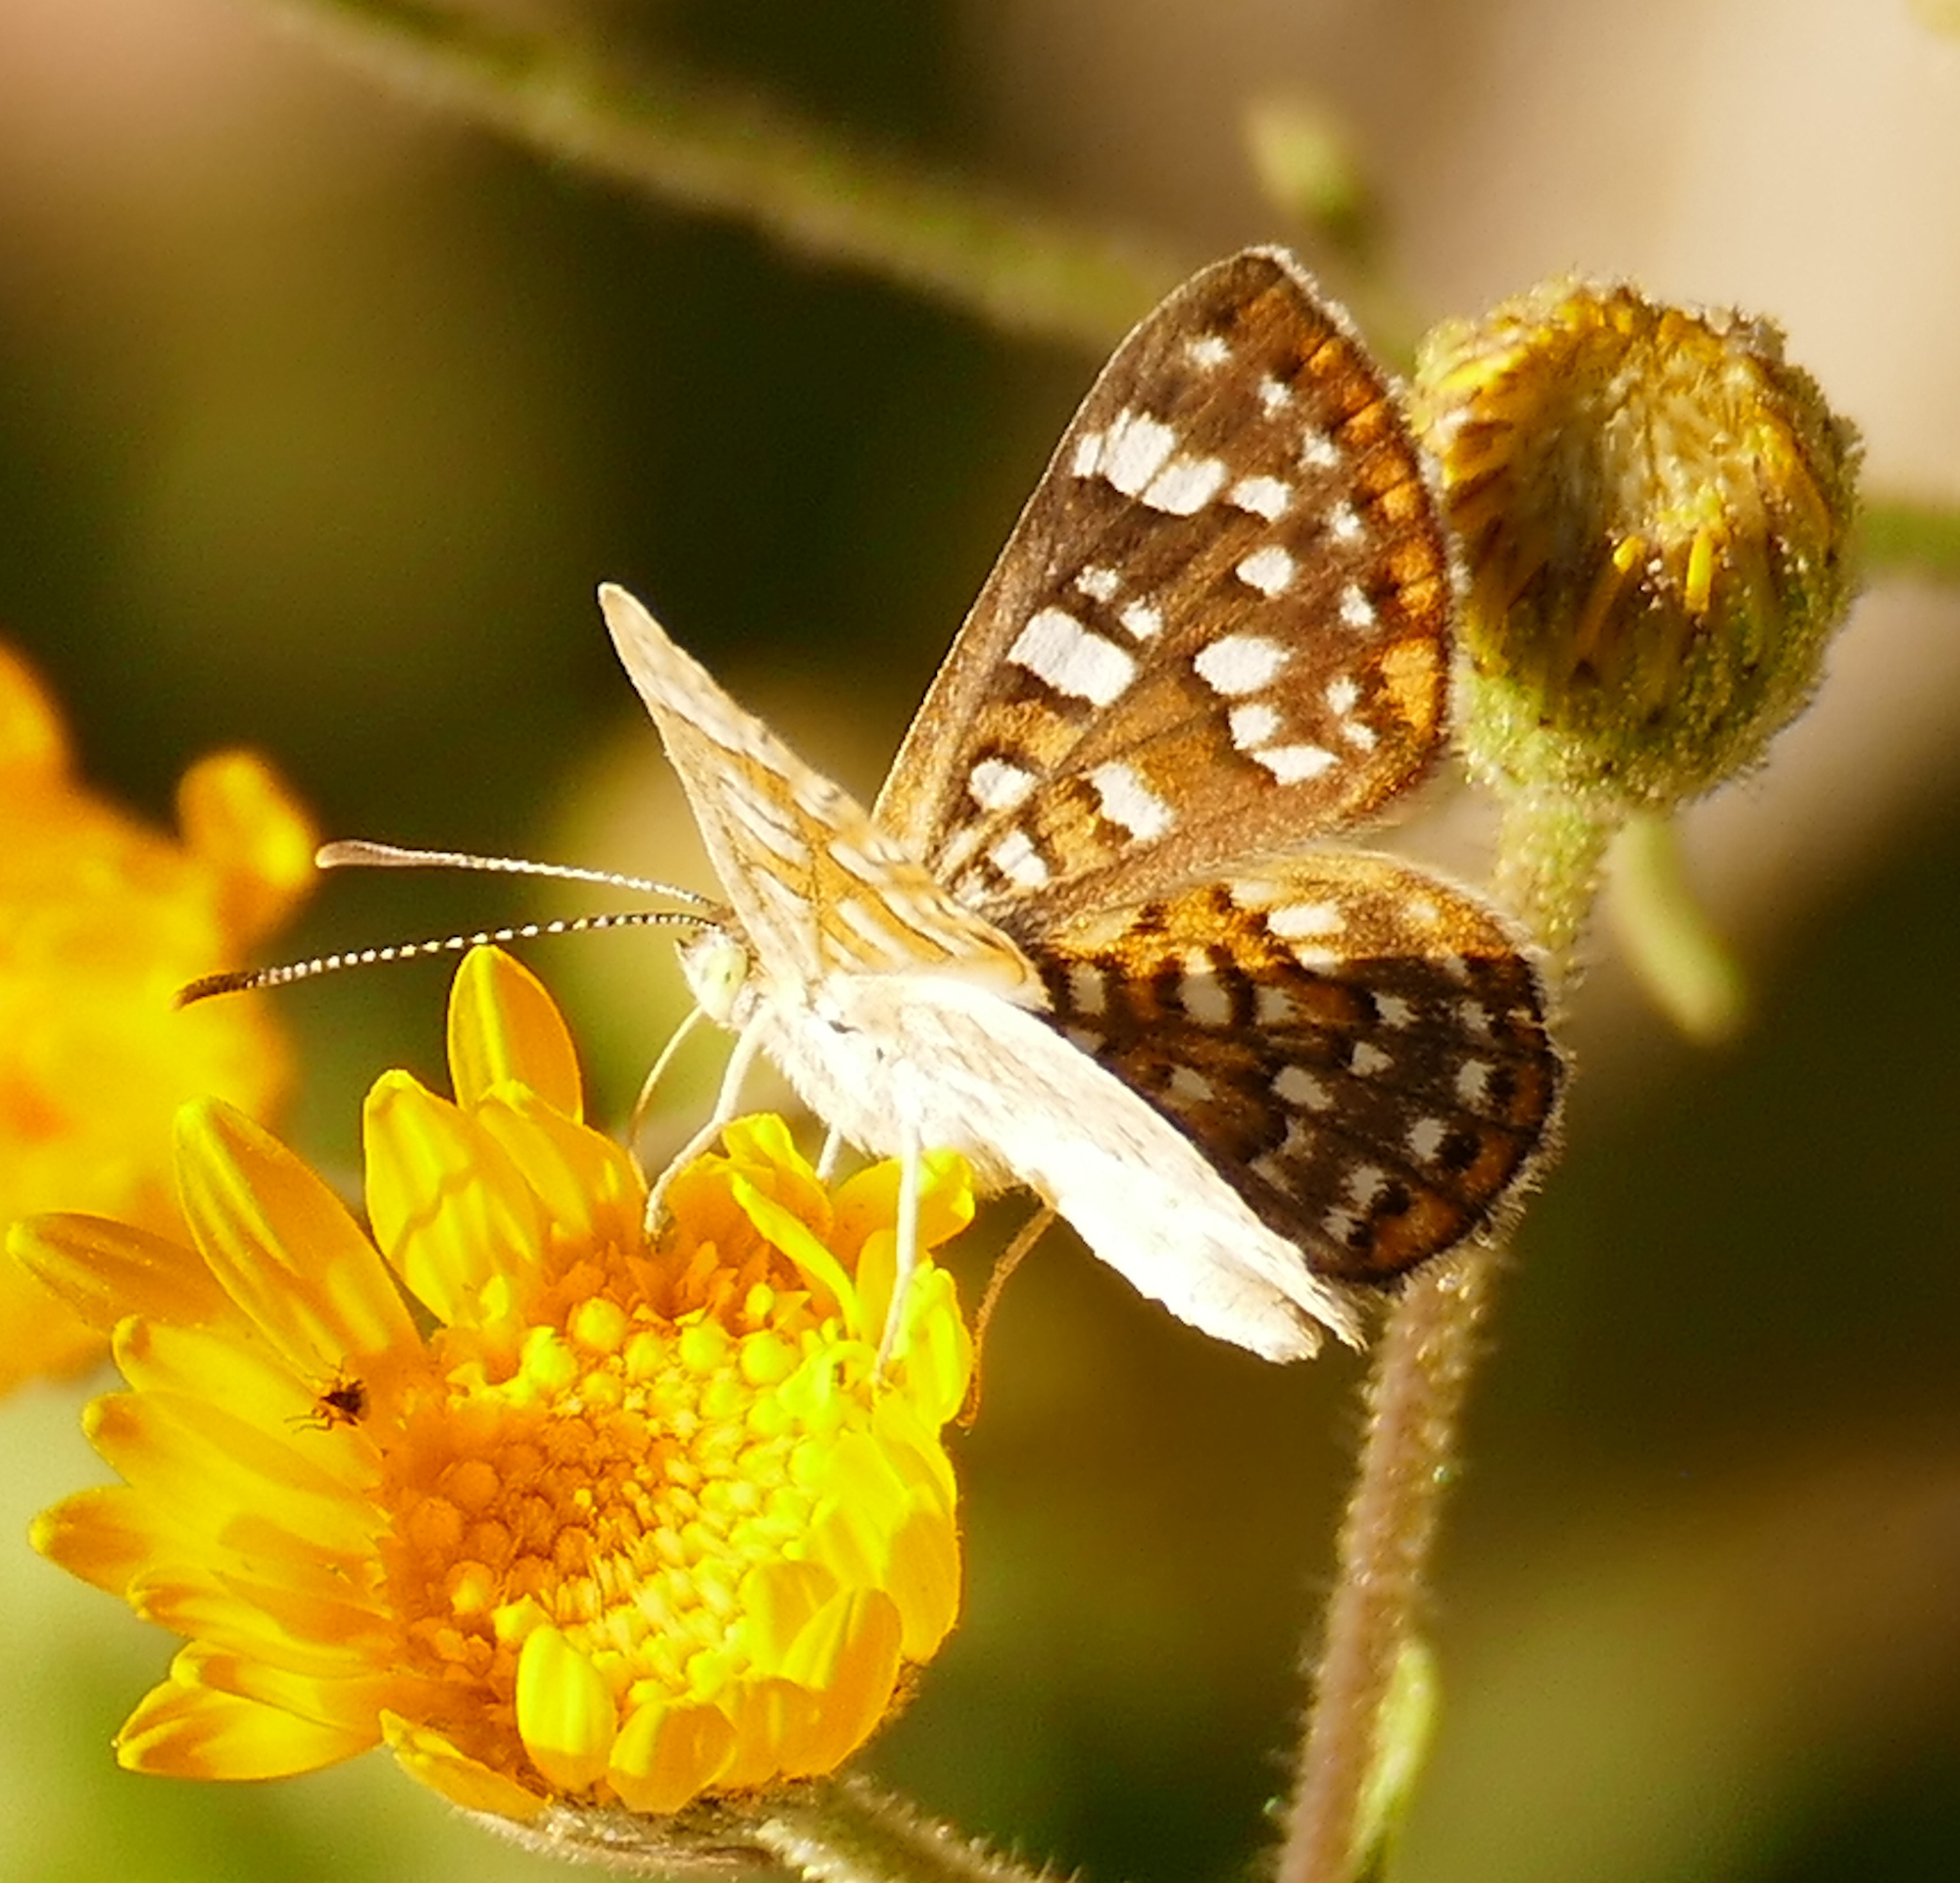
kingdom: Animalia
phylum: Arthropoda
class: Insecta
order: Lepidoptera
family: Riodinidae
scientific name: Riodinidae
